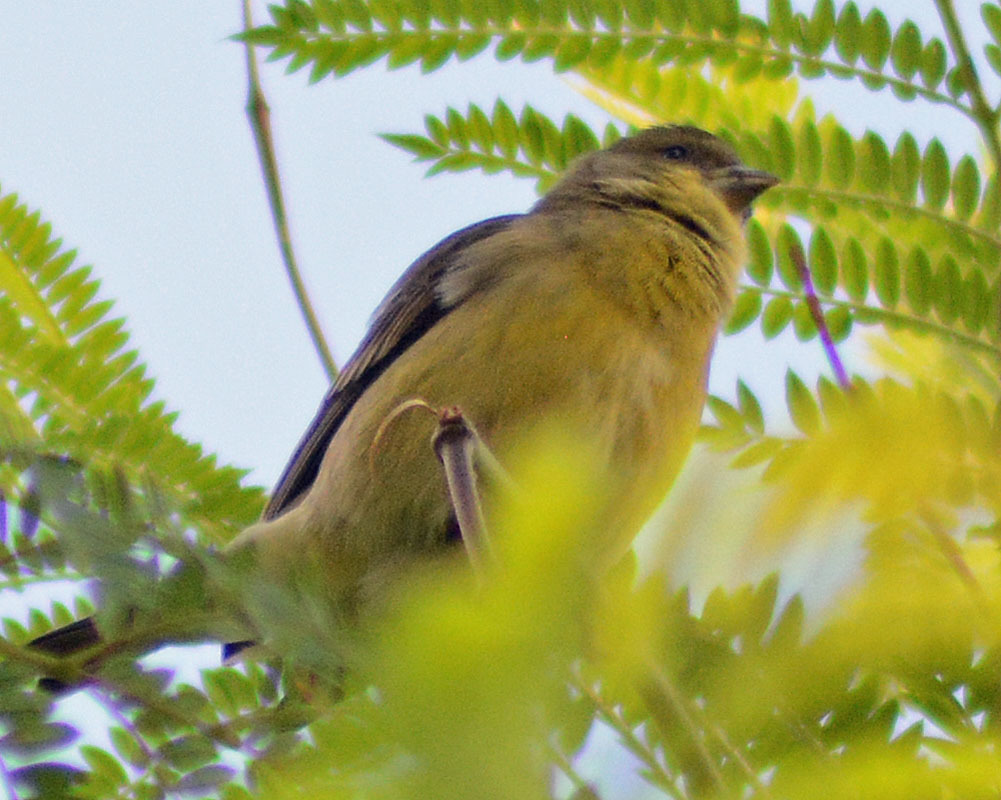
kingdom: Animalia
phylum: Chordata
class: Aves
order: Passeriformes
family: Fringillidae
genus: Spinus
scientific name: Spinus psaltria
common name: Lesser goldfinch
